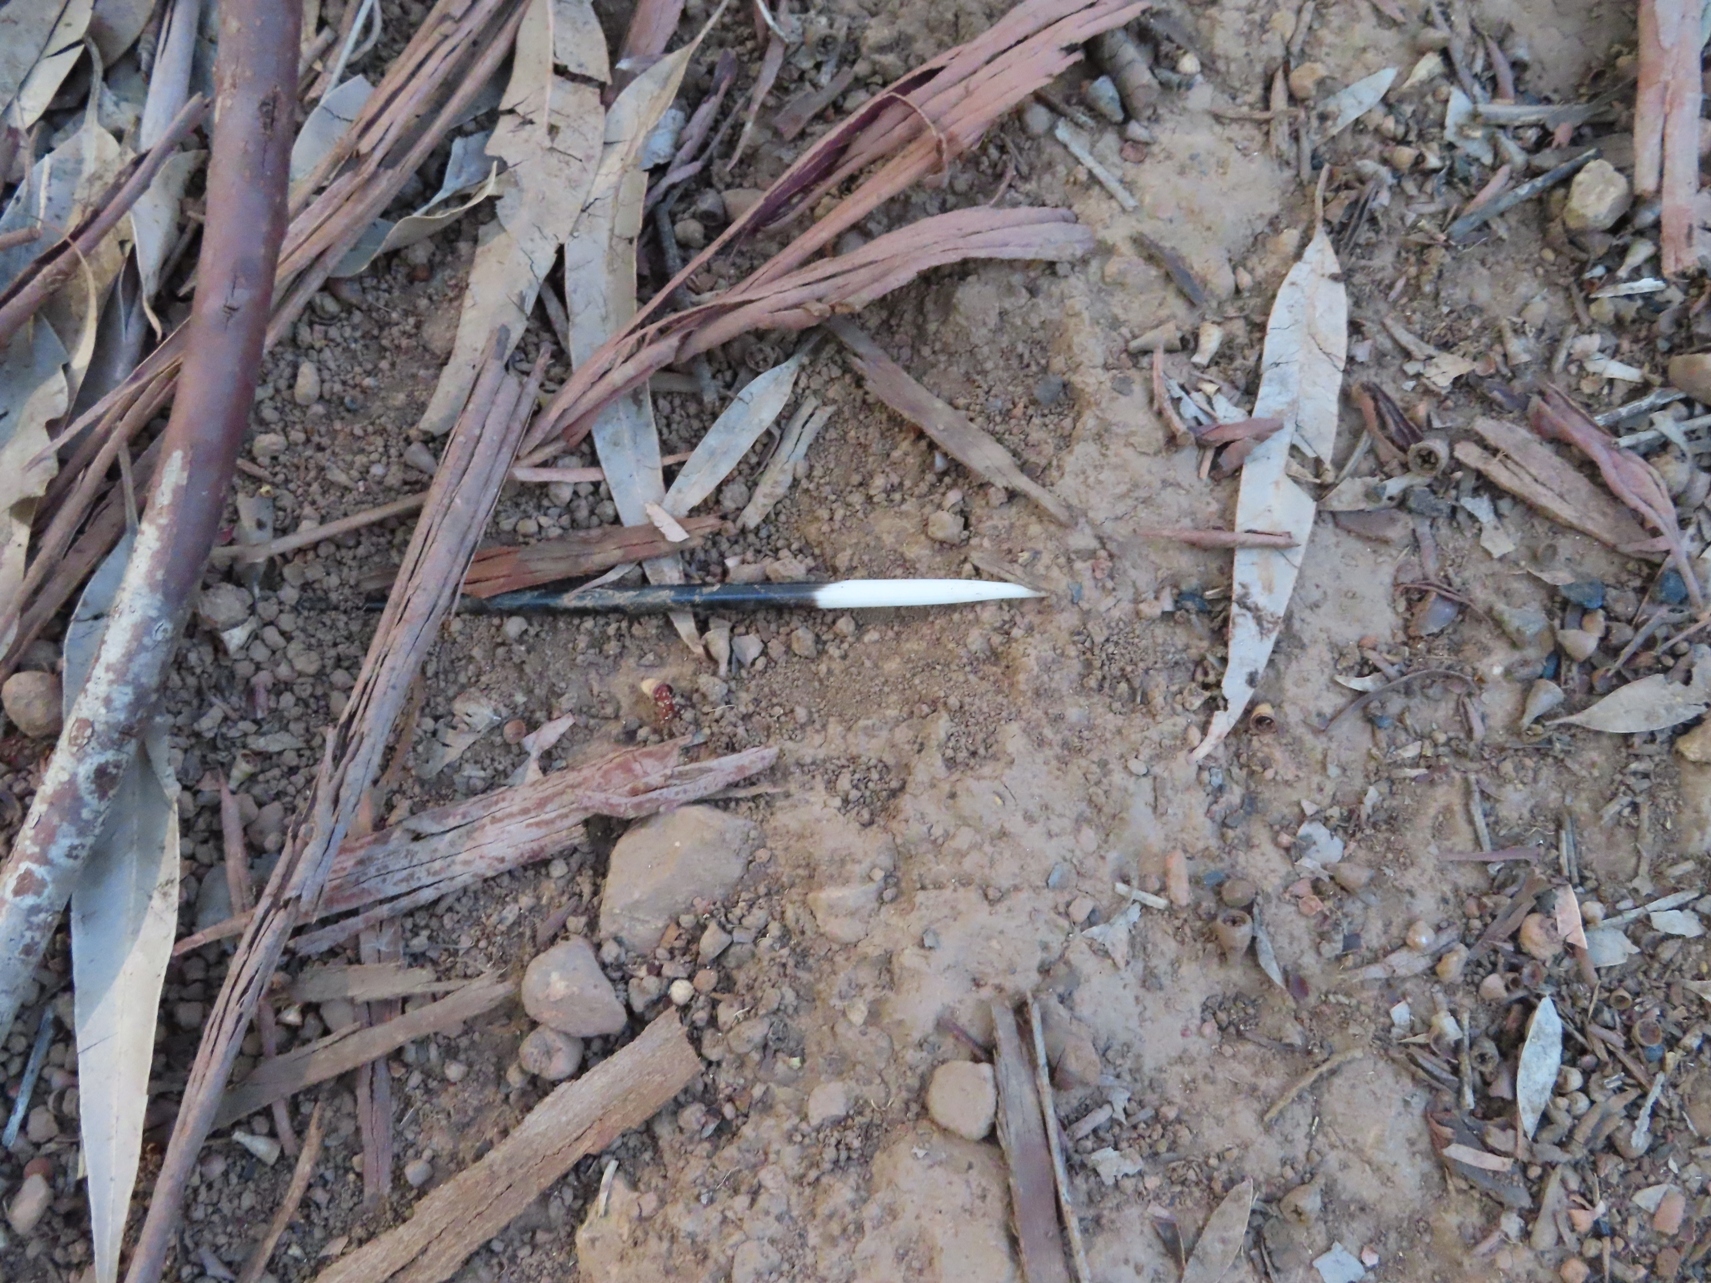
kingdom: Animalia
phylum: Chordata
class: Mammalia
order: Rodentia
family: Hystricidae
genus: Hystrix
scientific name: Hystrix africaeaustralis
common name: Cape porcupine
